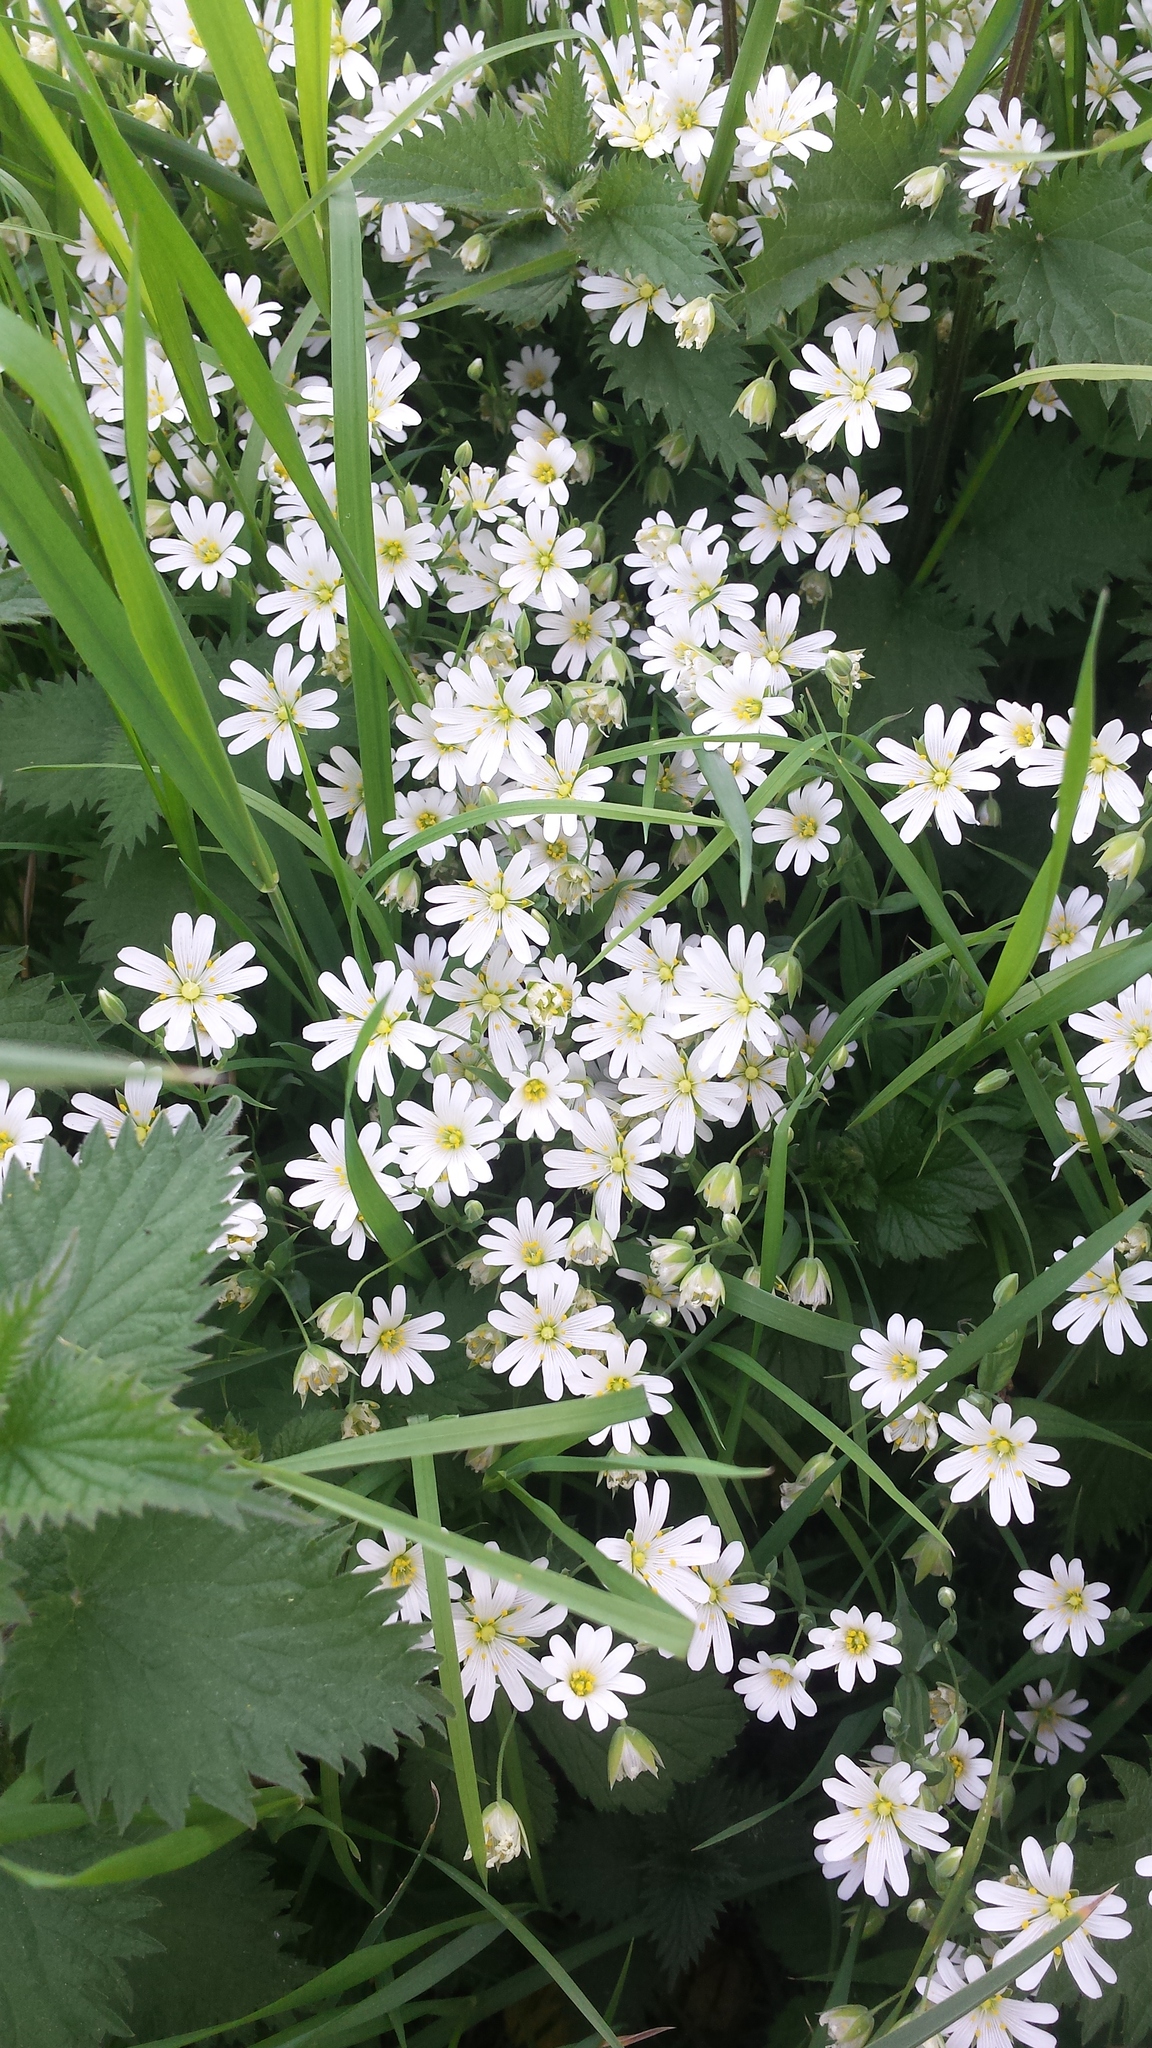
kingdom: Plantae
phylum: Tracheophyta
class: Magnoliopsida
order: Caryophyllales
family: Caryophyllaceae
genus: Rabelera
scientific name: Rabelera holostea
